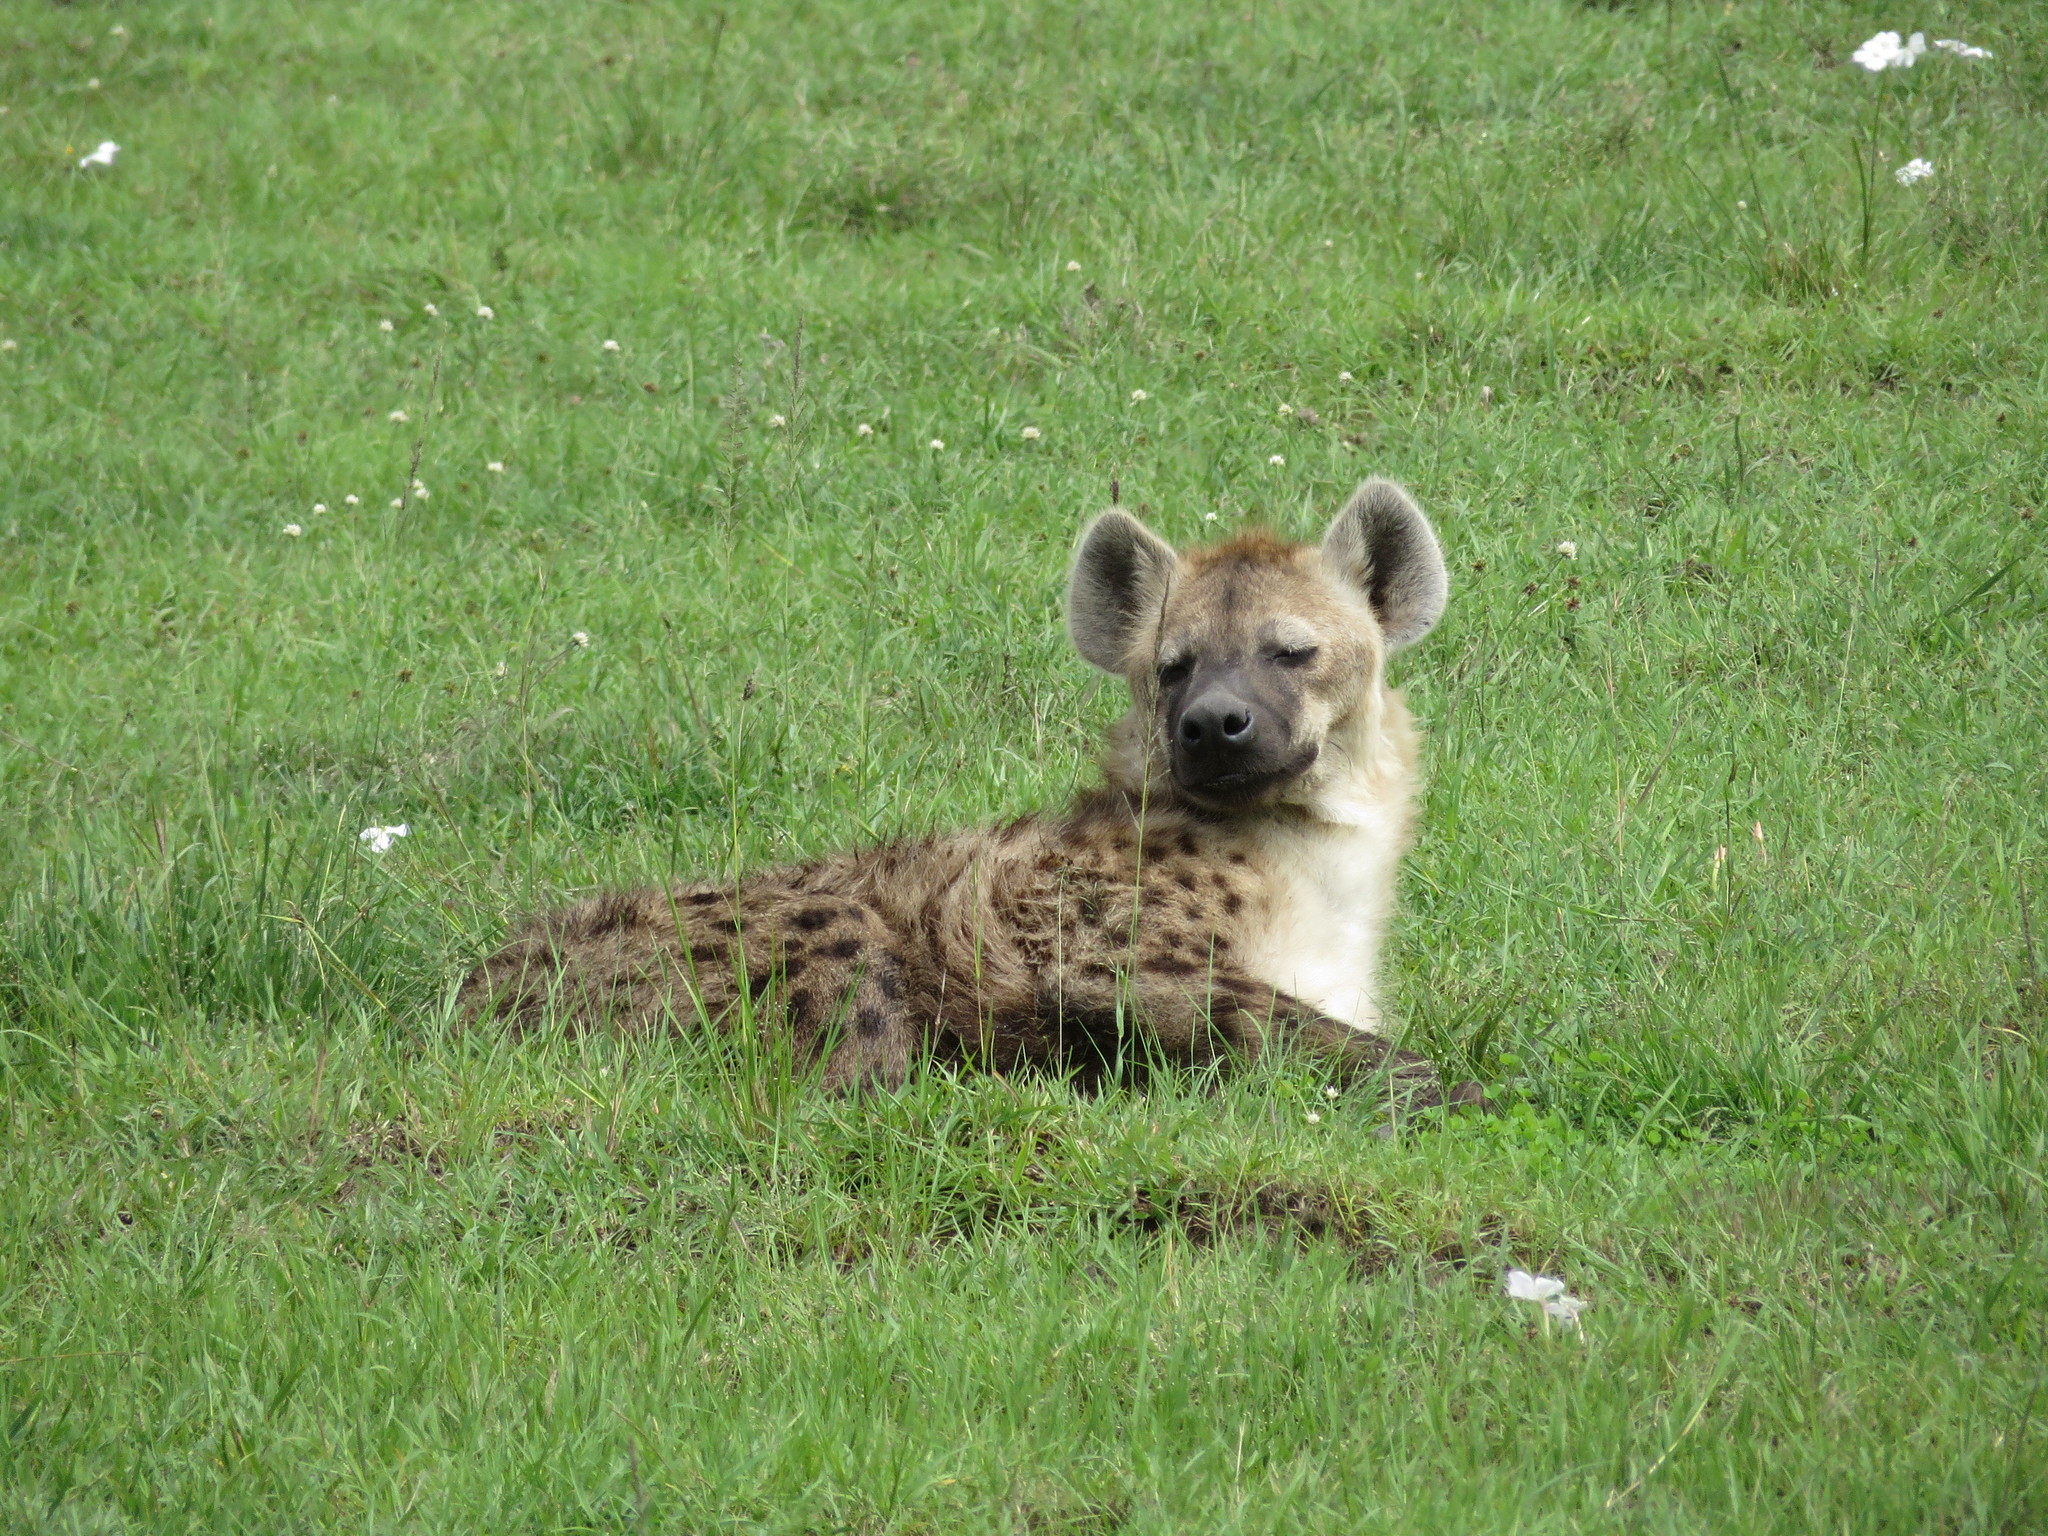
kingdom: Animalia
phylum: Chordata
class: Mammalia
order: Carnivora
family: Hyaenidae
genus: Crocuta
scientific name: Crocuta crocuta
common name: Spotted hyaena
